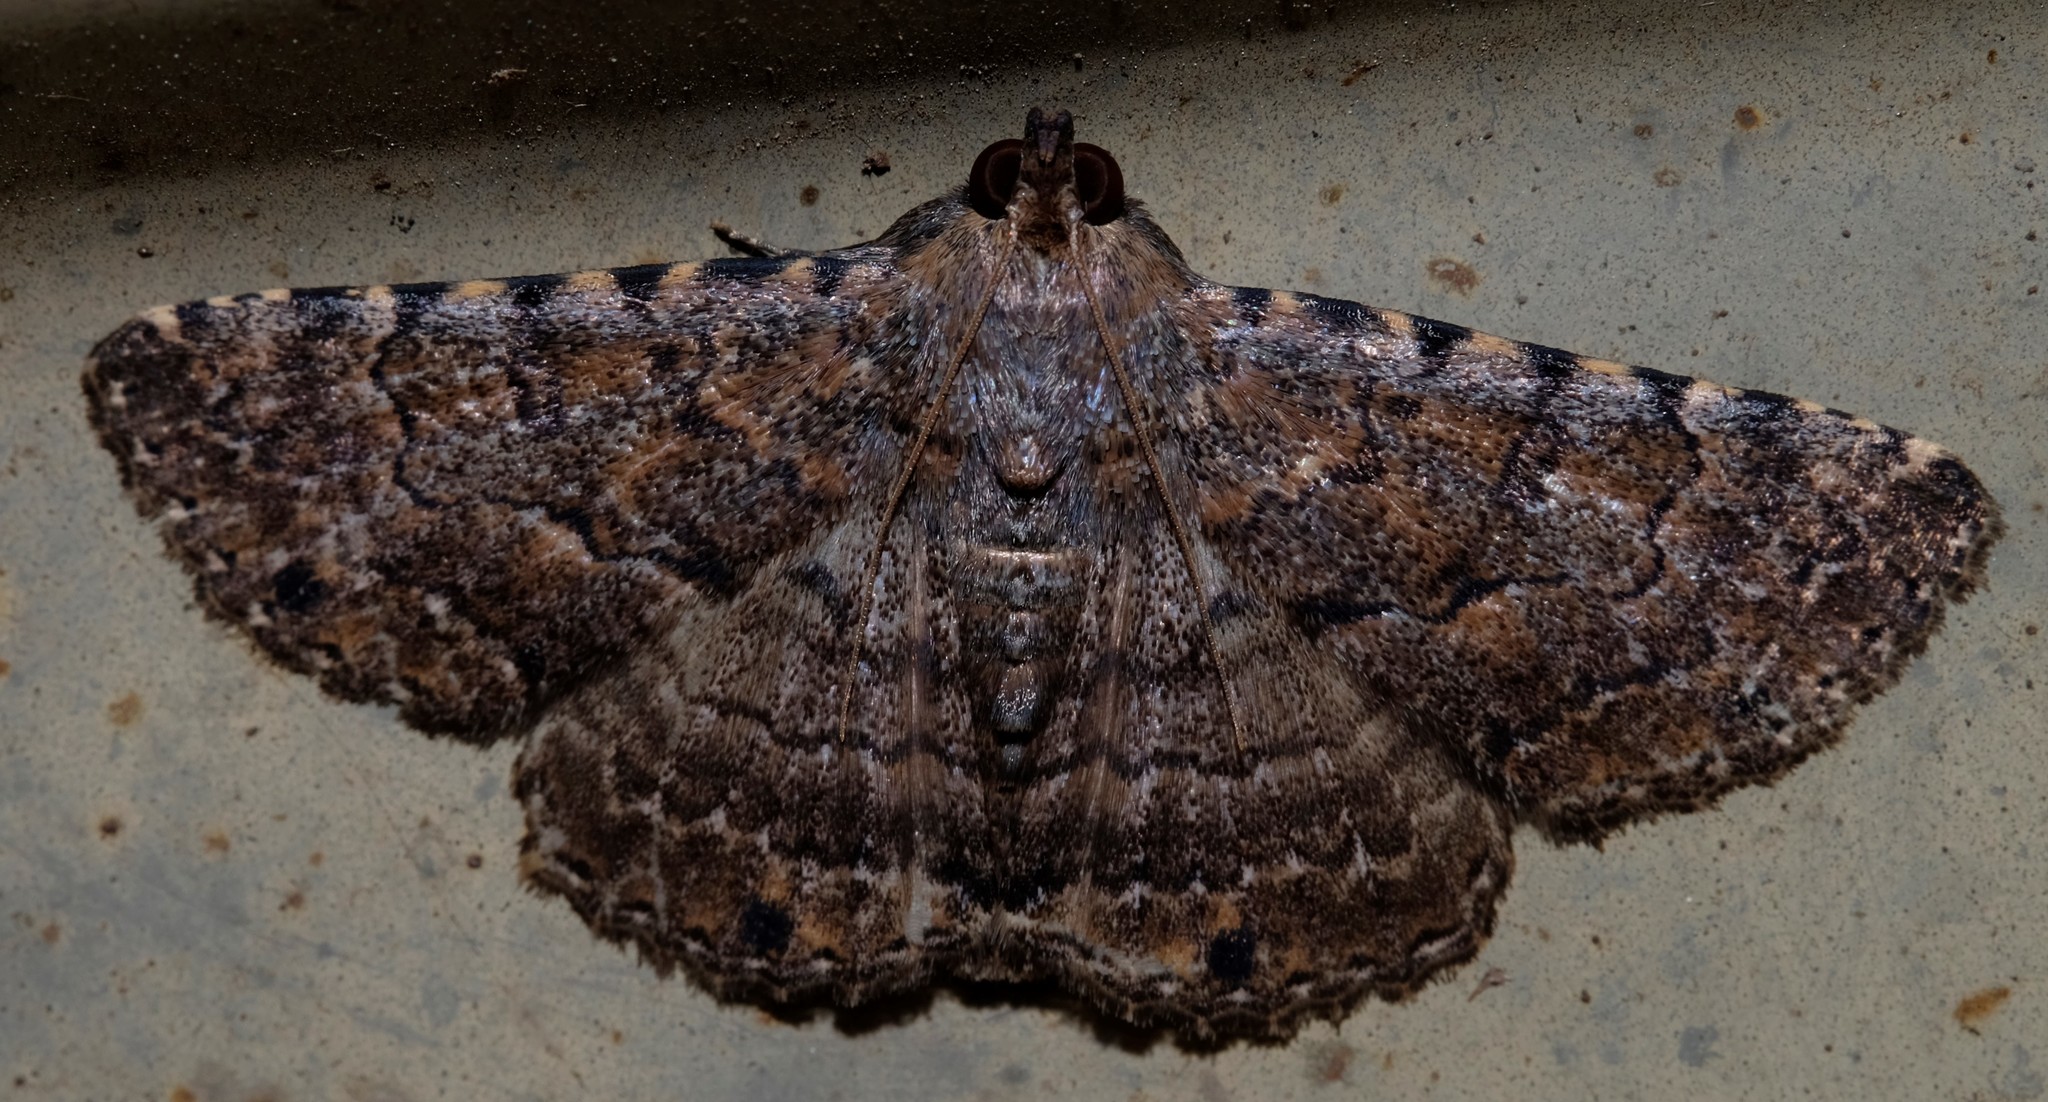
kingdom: Animalia
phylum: Arthropoda
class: Insecta
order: Lepidoptera
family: Erebidae
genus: Diatenes
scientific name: Diatenes aglossoides
